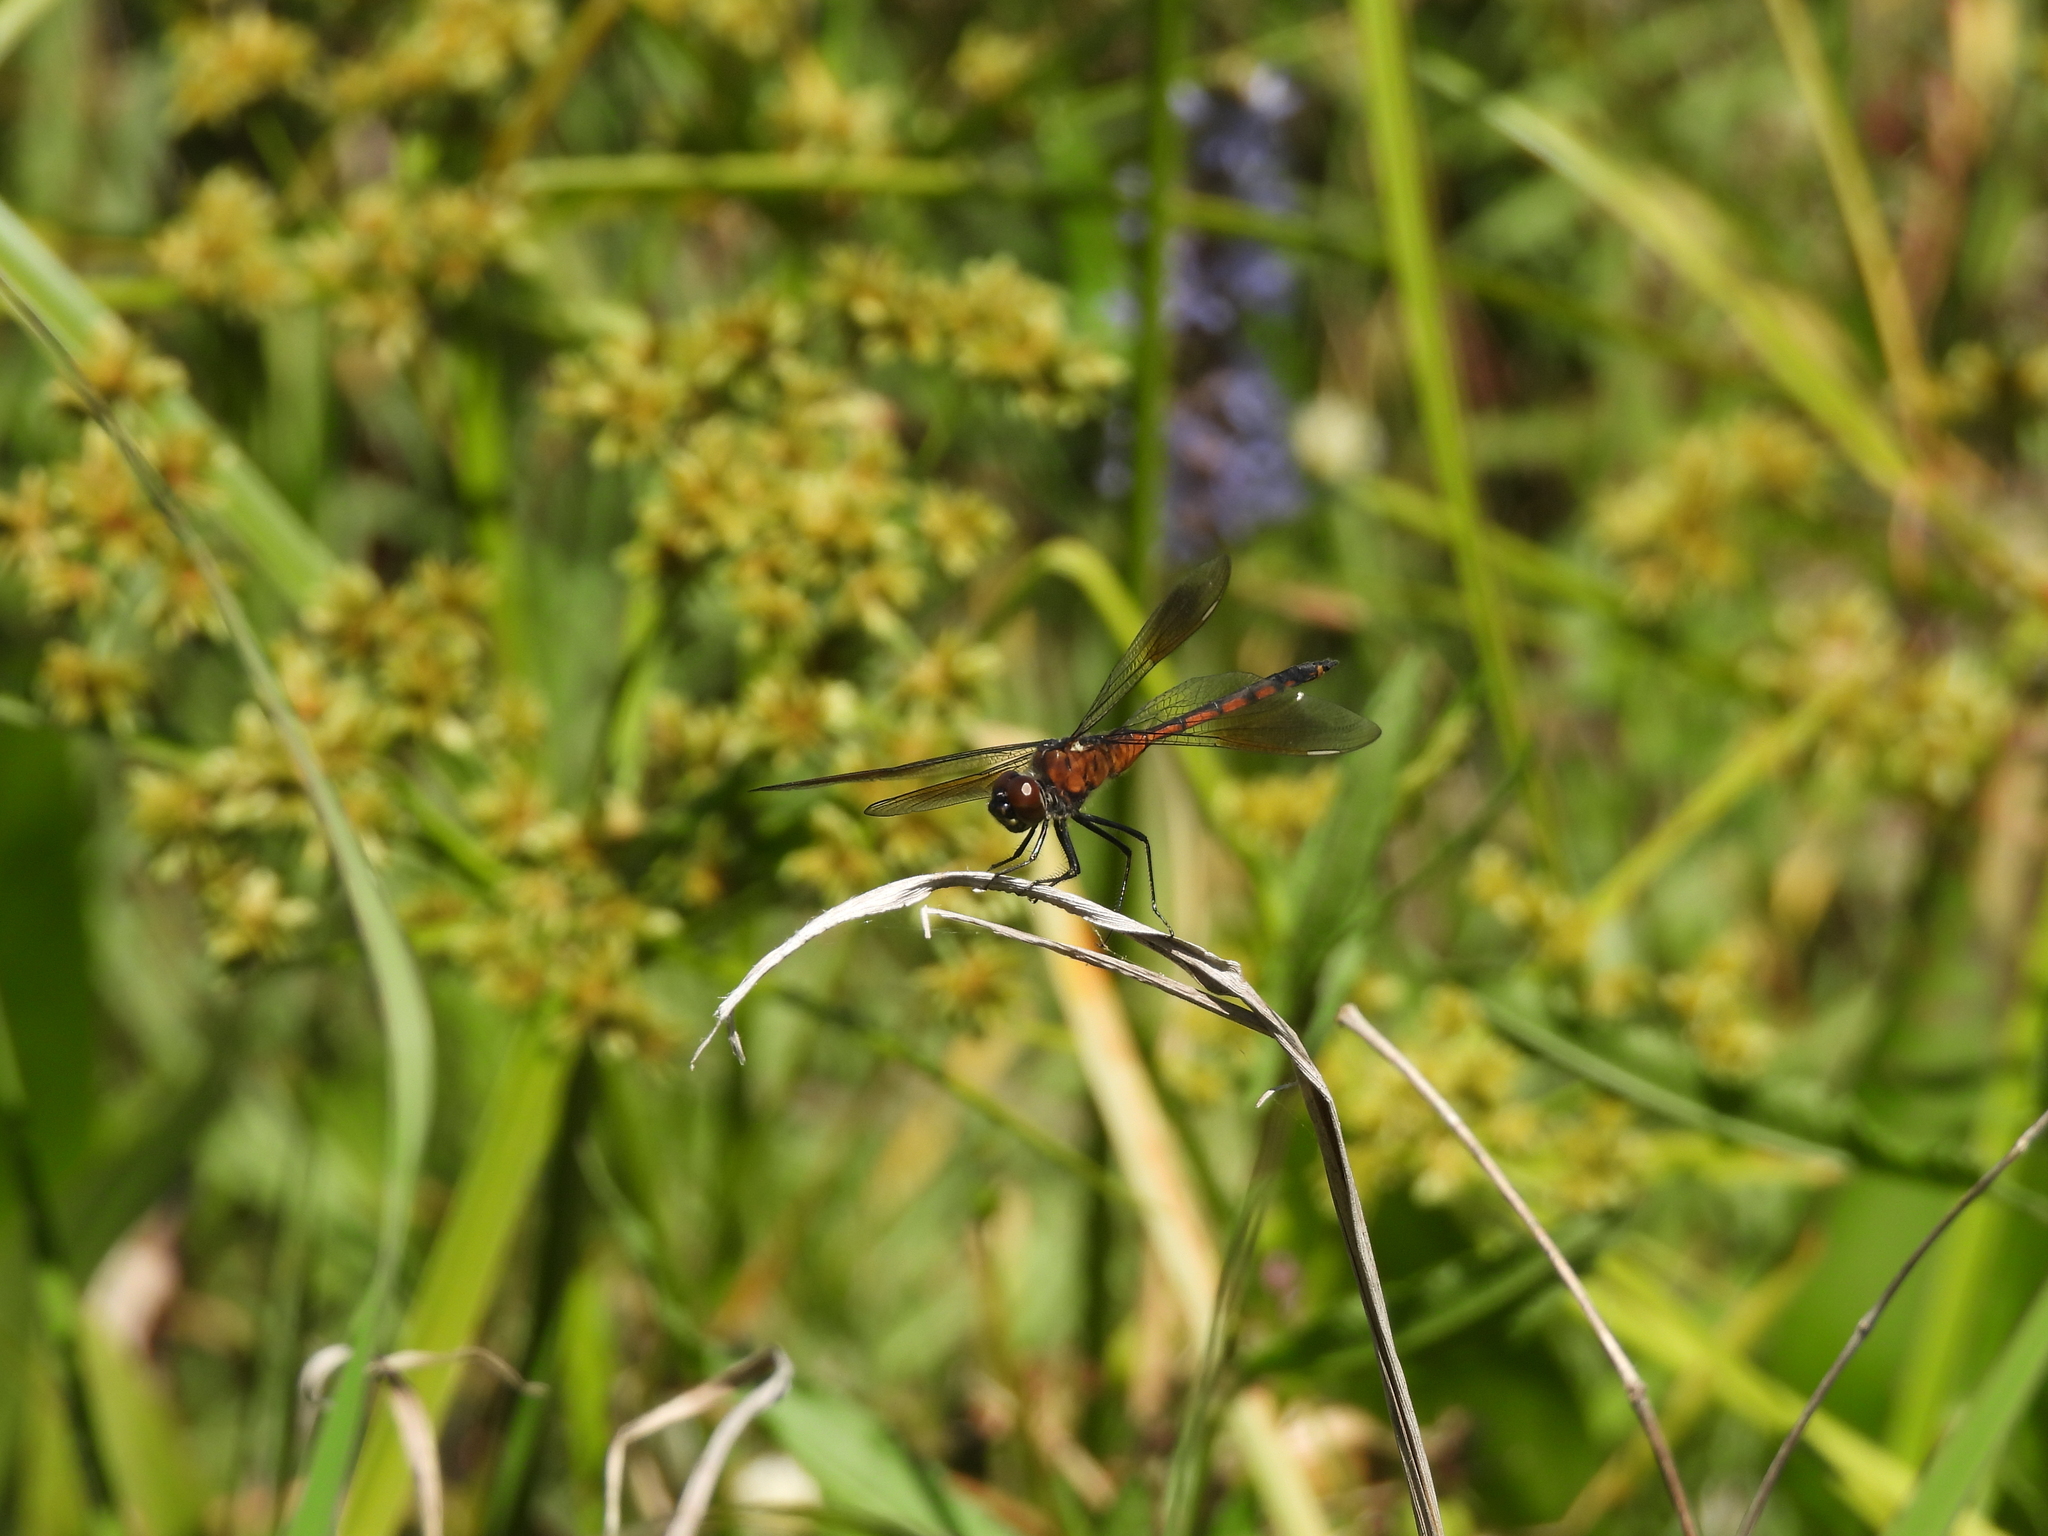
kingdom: Animalia
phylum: Arthropoda
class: Insecta
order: Odonata
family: Libellulidae
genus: Brachymesia
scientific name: Brachymesia gravida
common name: Four-spotted pennant
